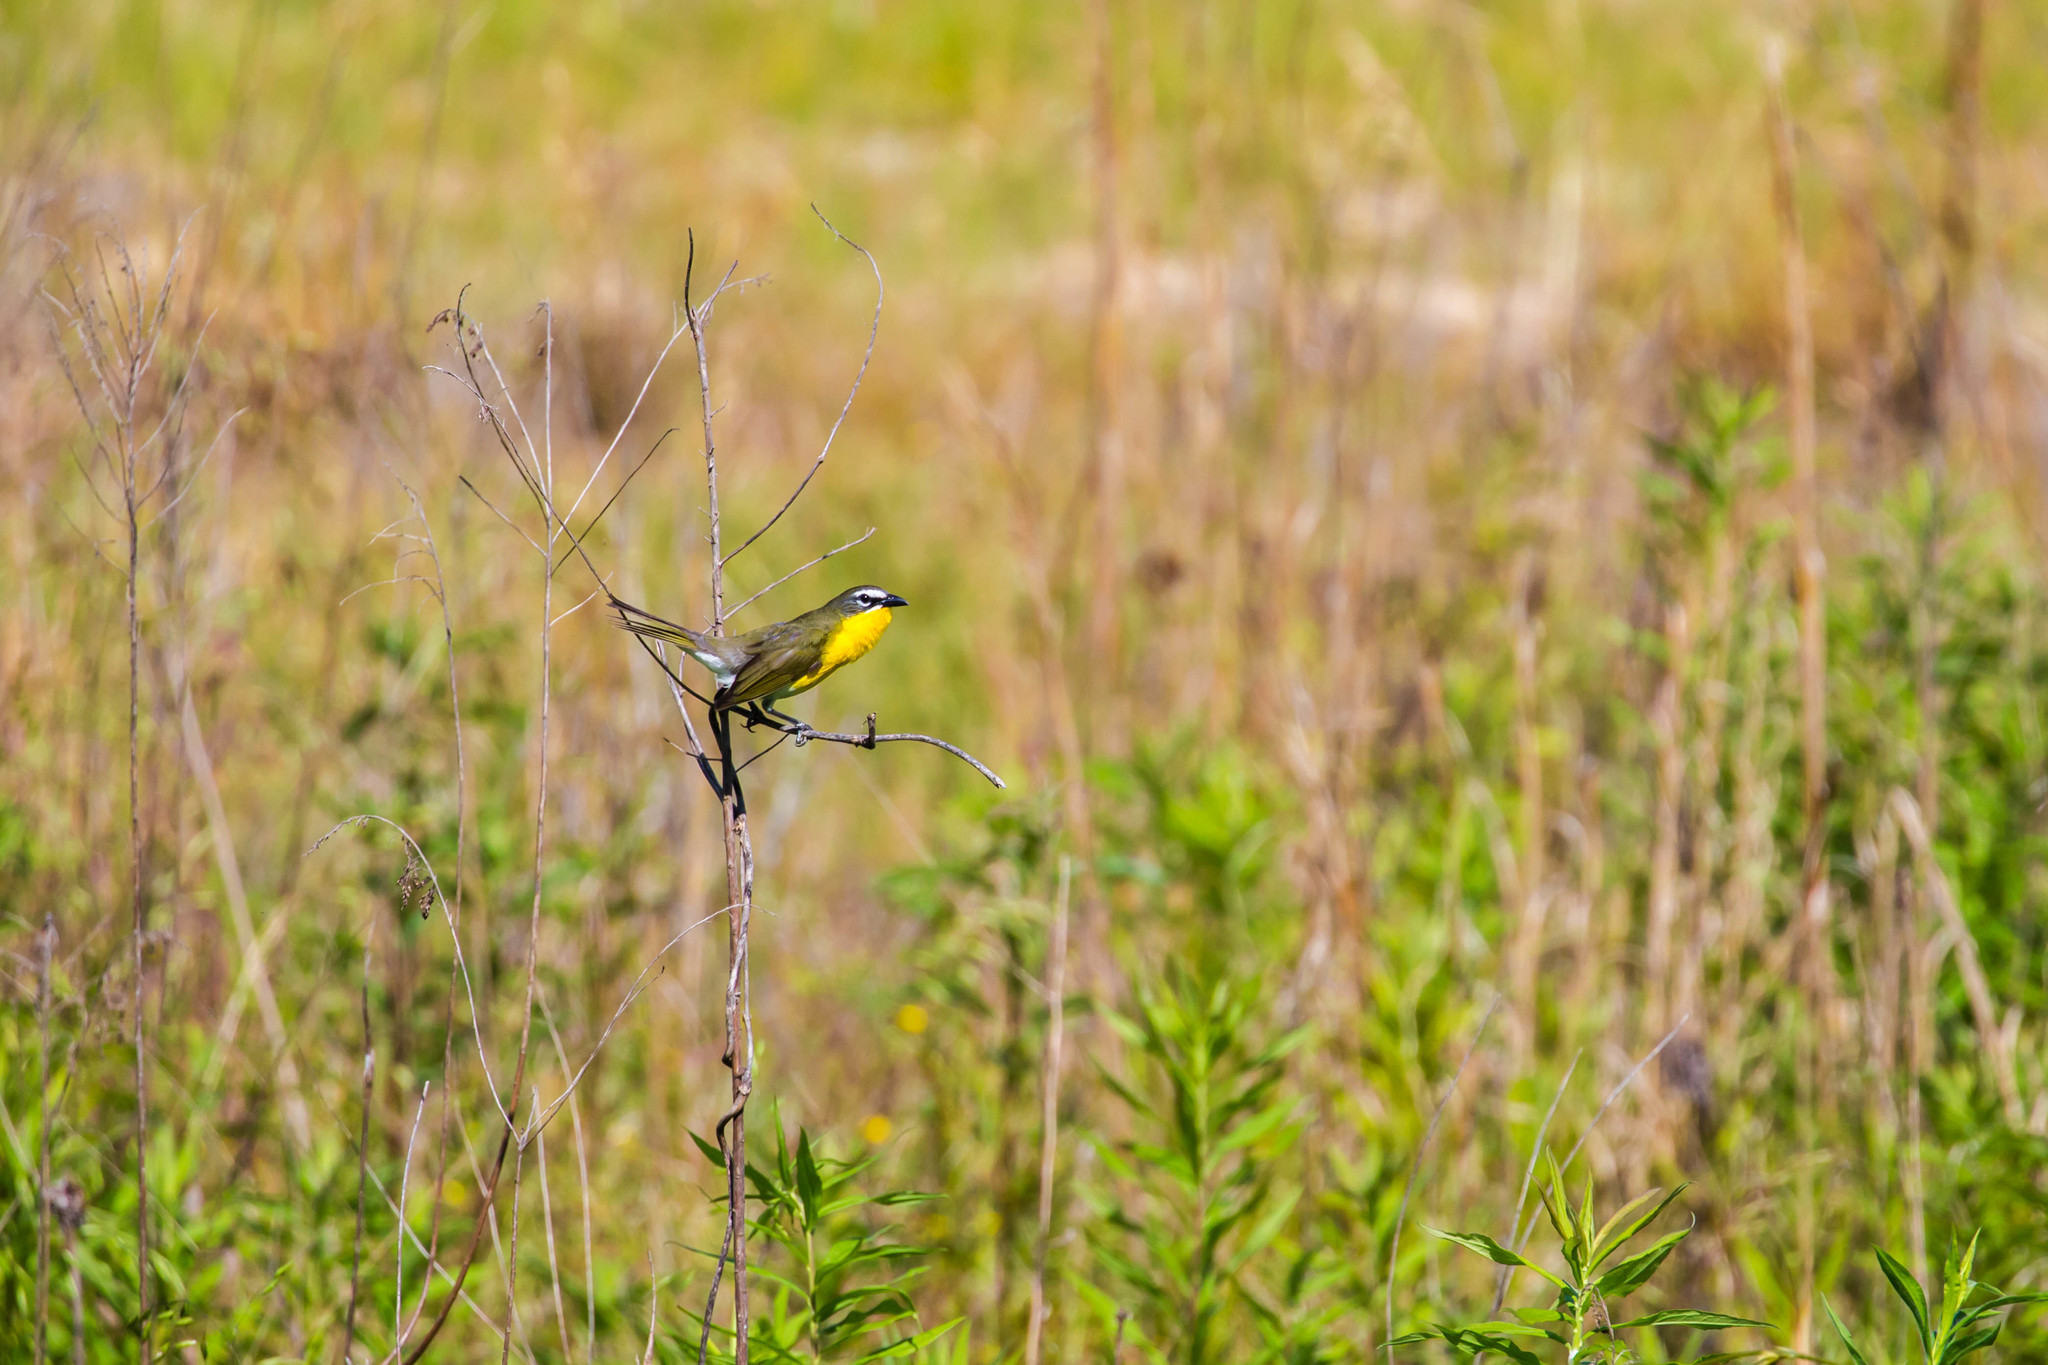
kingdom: Animalia
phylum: Chordata
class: Aves
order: Passeriformes
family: Parulidae
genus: Icteria
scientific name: Icteria virens
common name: Yellow-breasted chat
